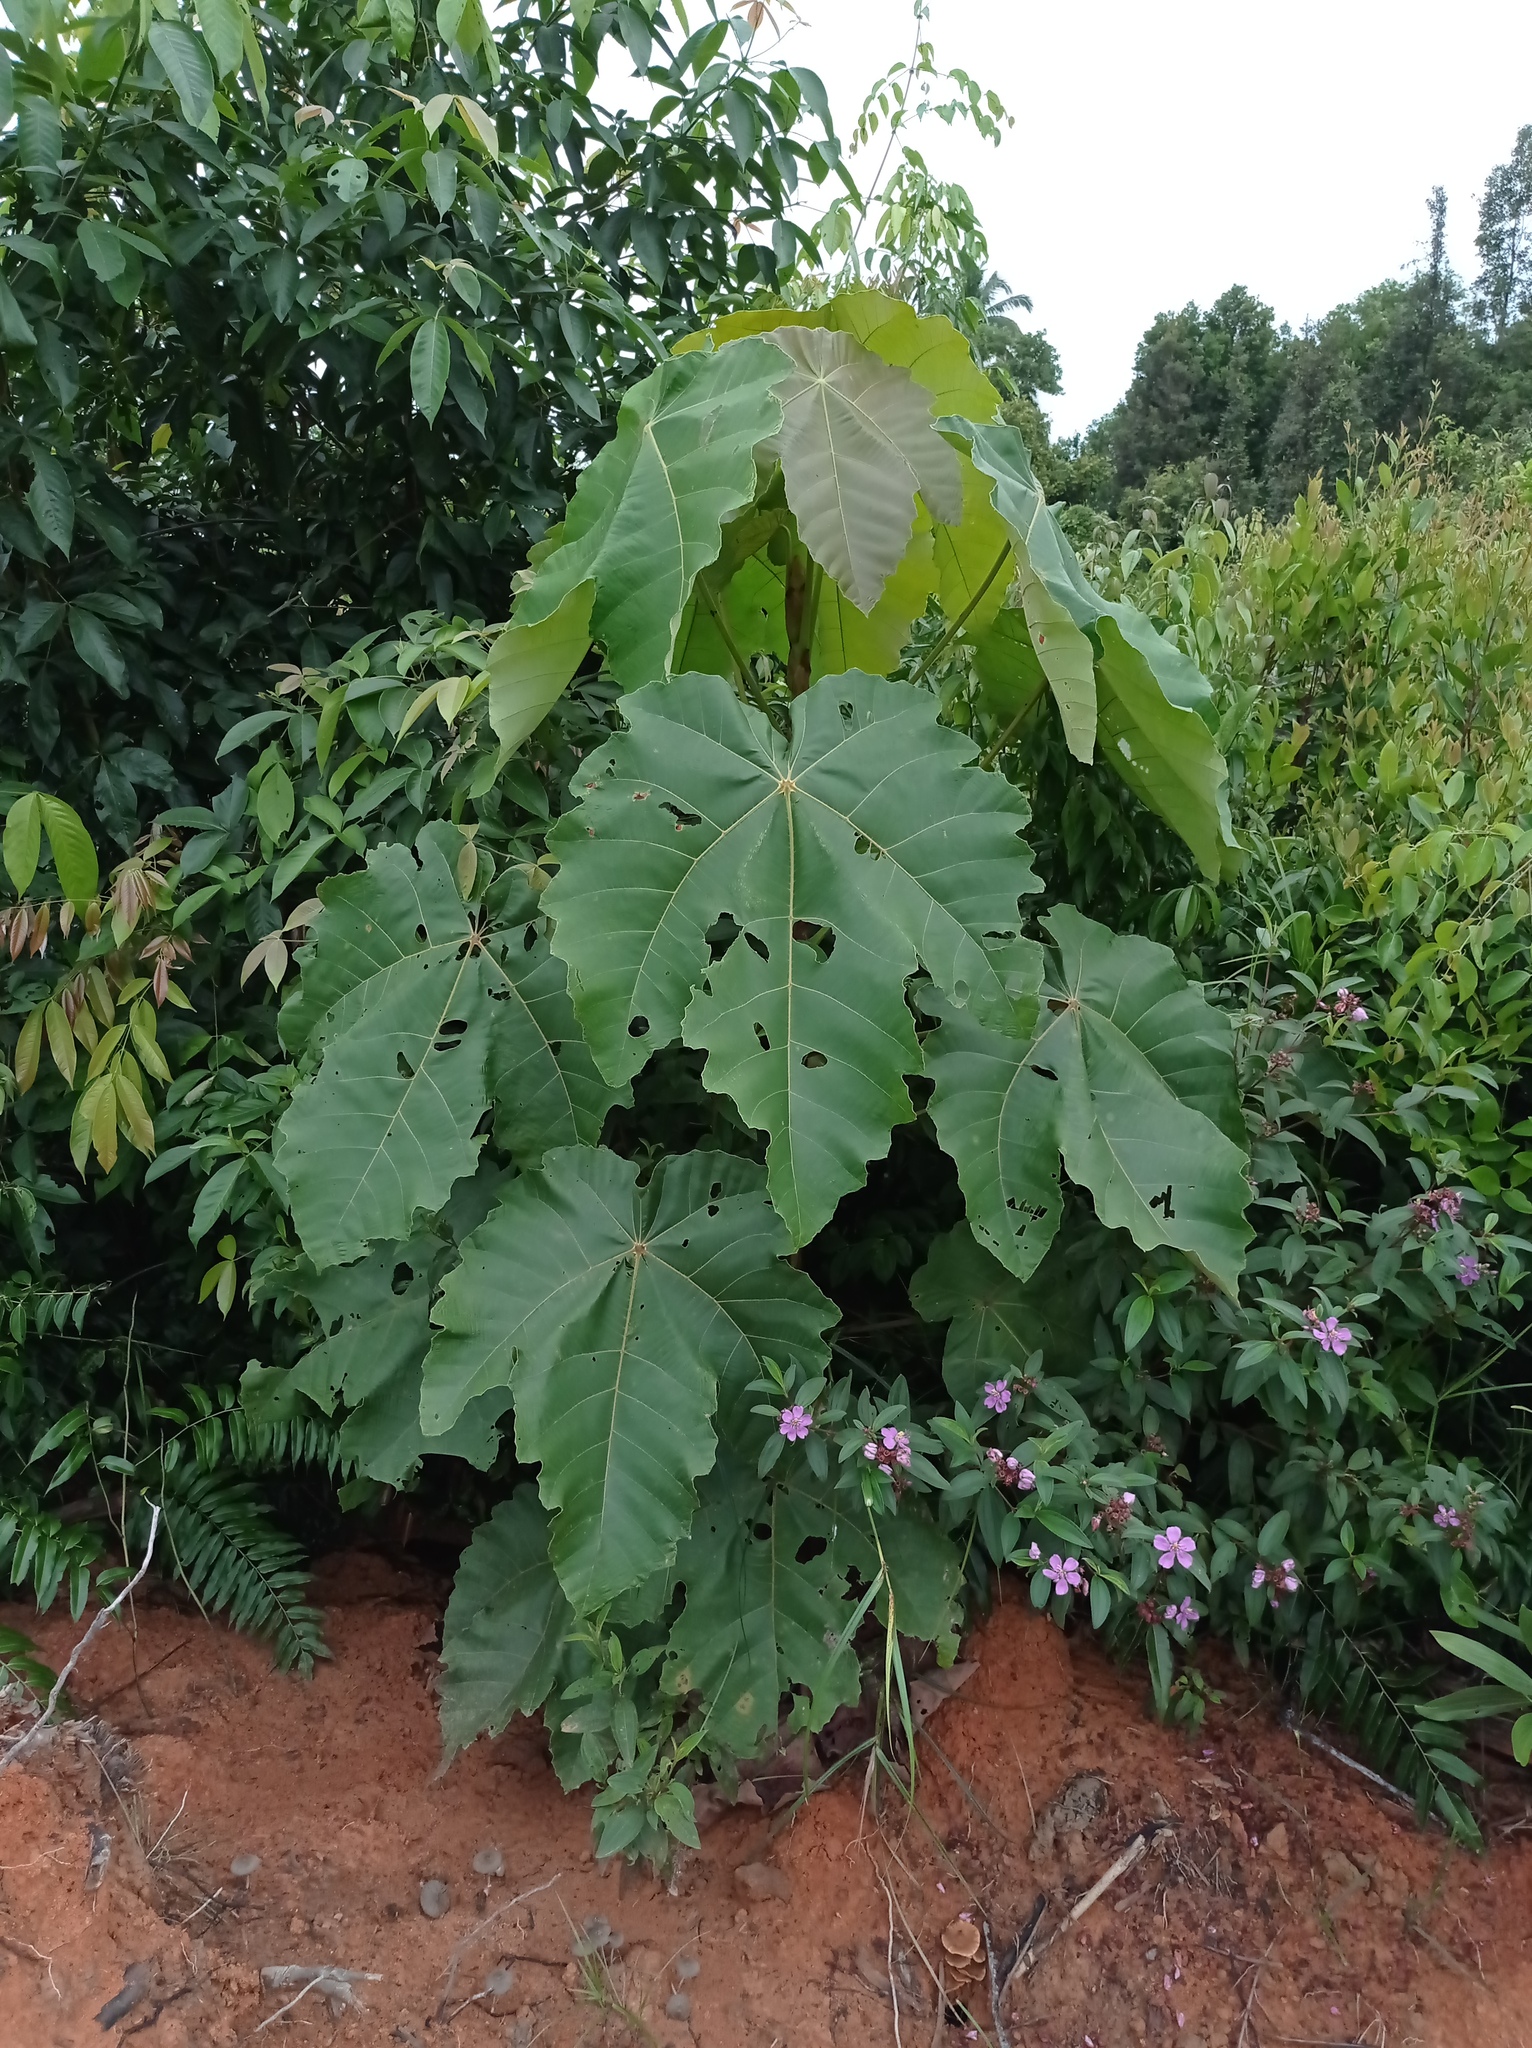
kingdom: Plantae
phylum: Tracheophyta
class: Magnoliopsida
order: Malpighiales
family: Euphorbiaceae
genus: Macaranga
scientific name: Macaranga gigantea
